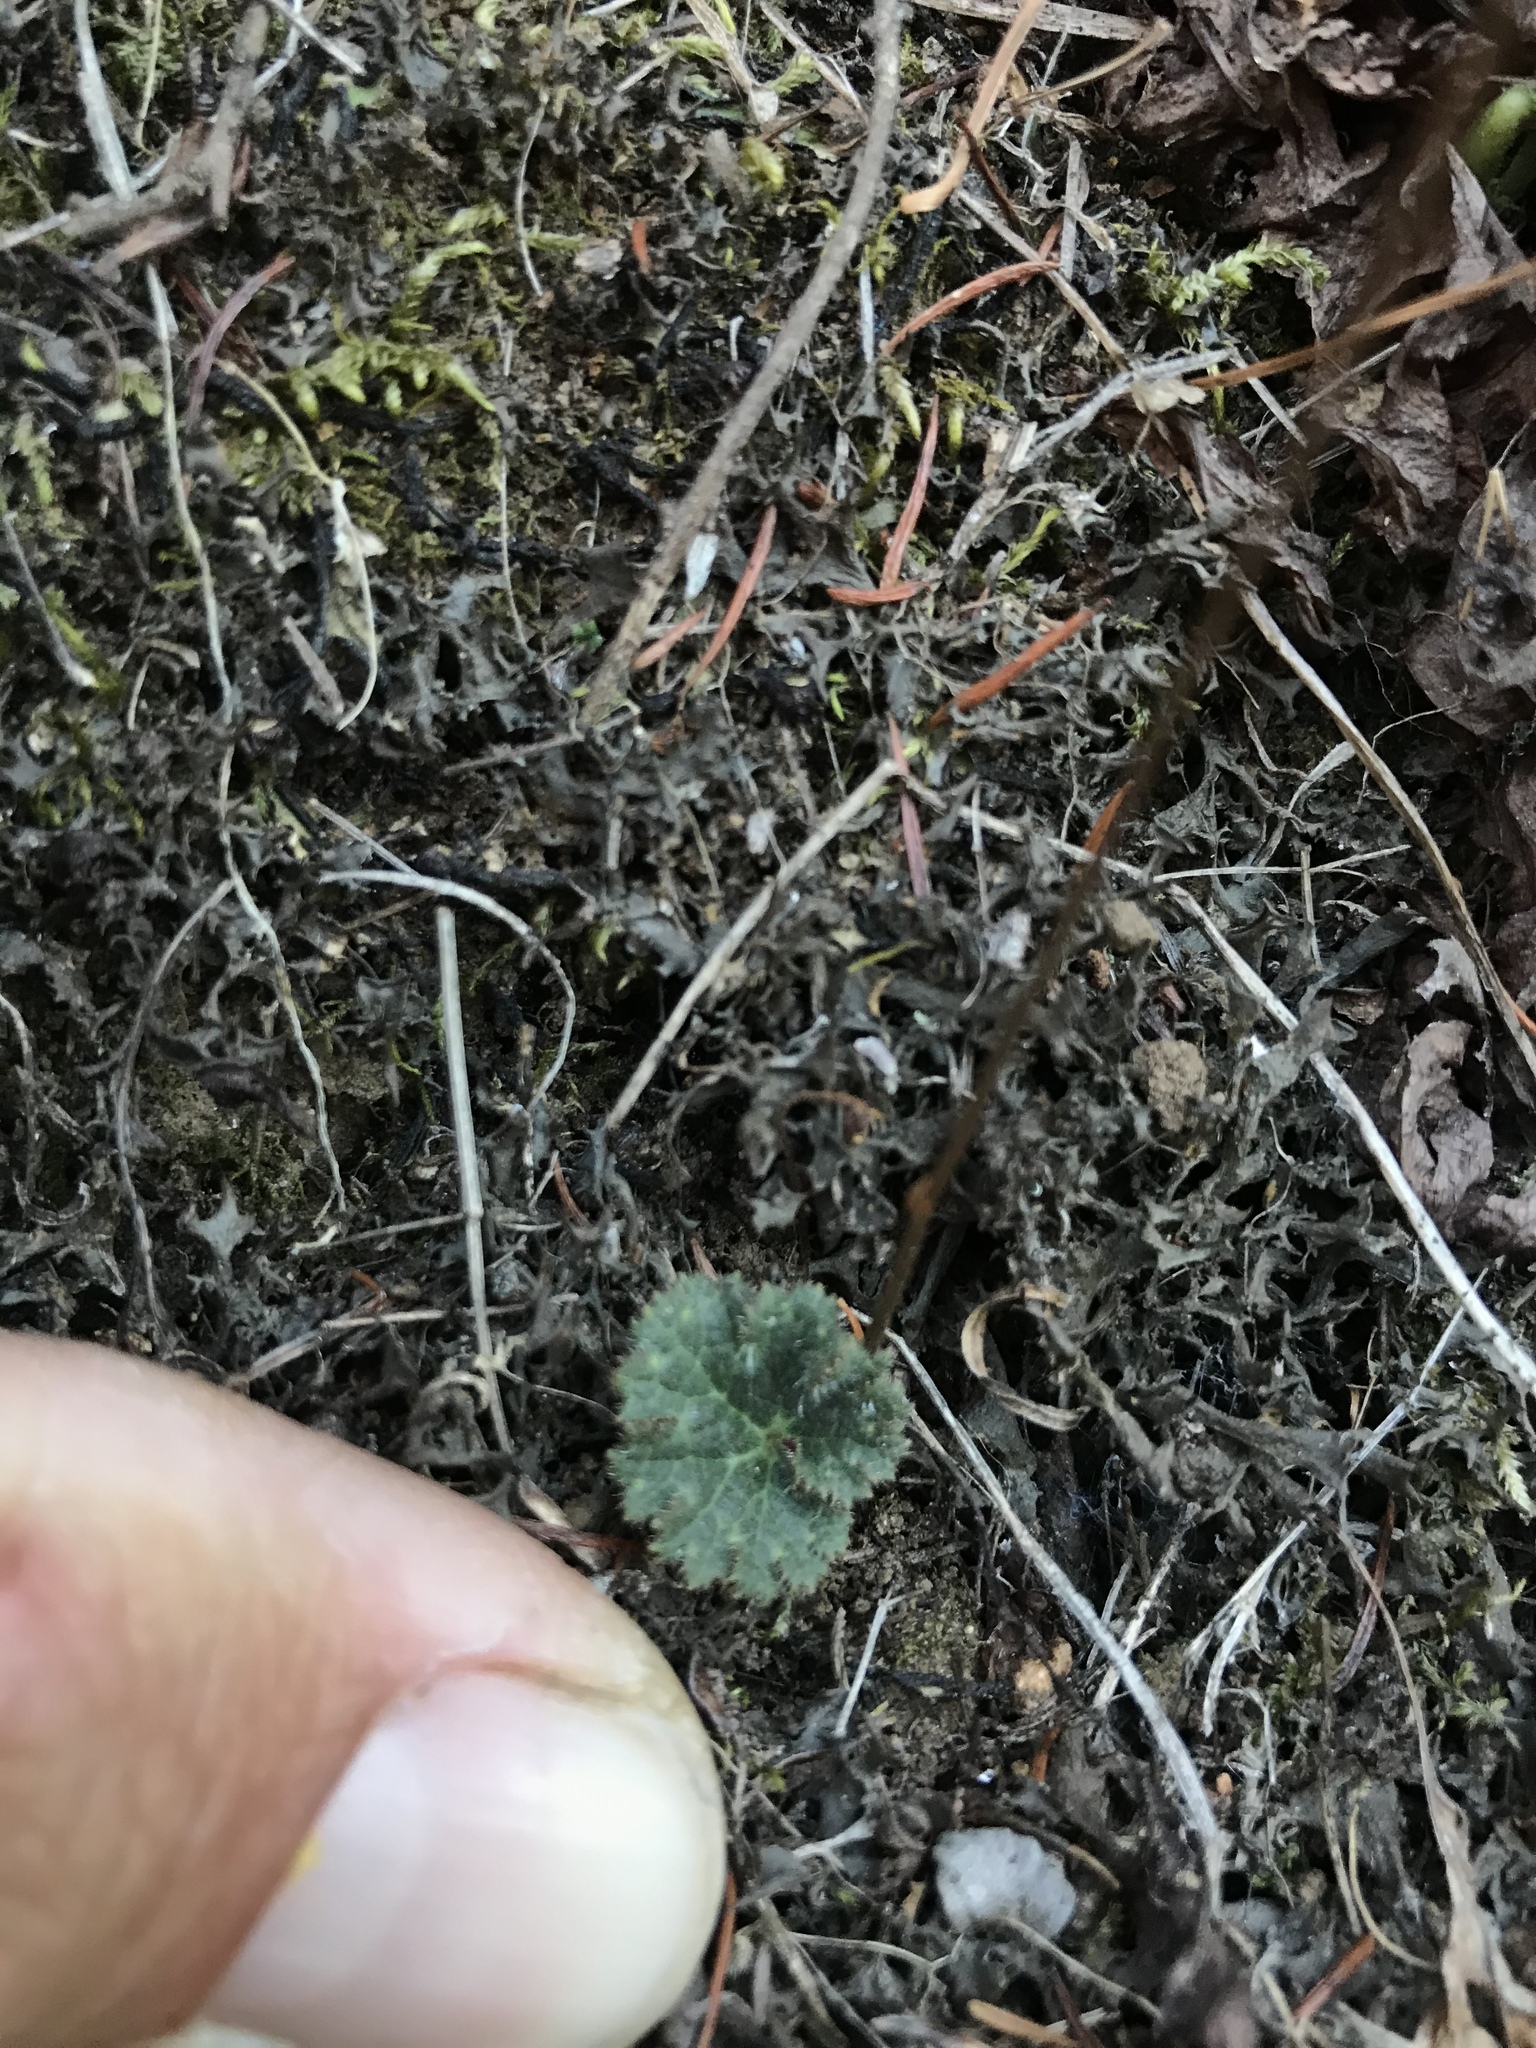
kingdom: Plantae
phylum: Tracheophyta
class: Magnoliopsida
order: Saxifragales
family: Saxifragaceae
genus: Jepsonia
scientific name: Jepsonia parryi
